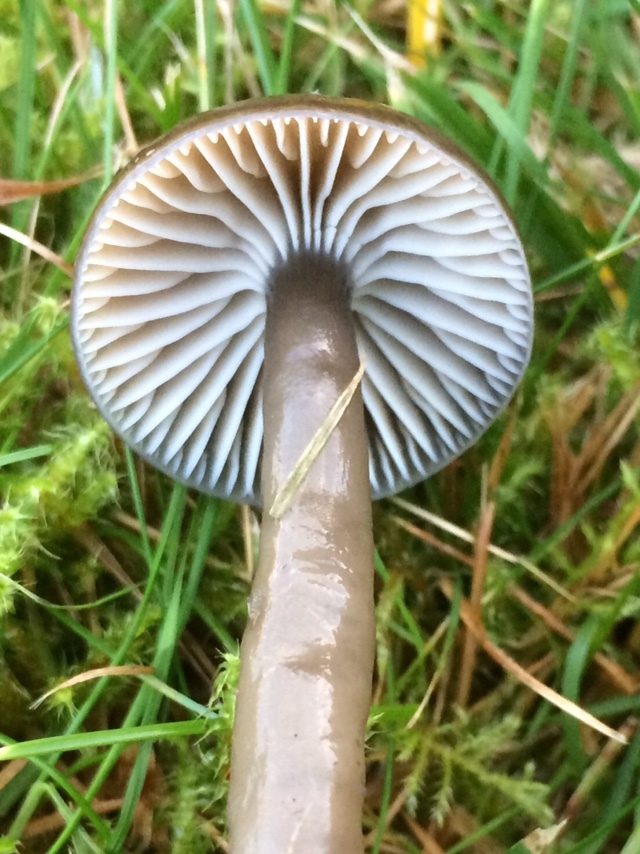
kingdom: Fungi
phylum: Basidiomycota
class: Agaricomycetes
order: Agaricales
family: Hygrophoraceae
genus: Gliophorus
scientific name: Gliophorus irrigatus
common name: Slimy waxcap
